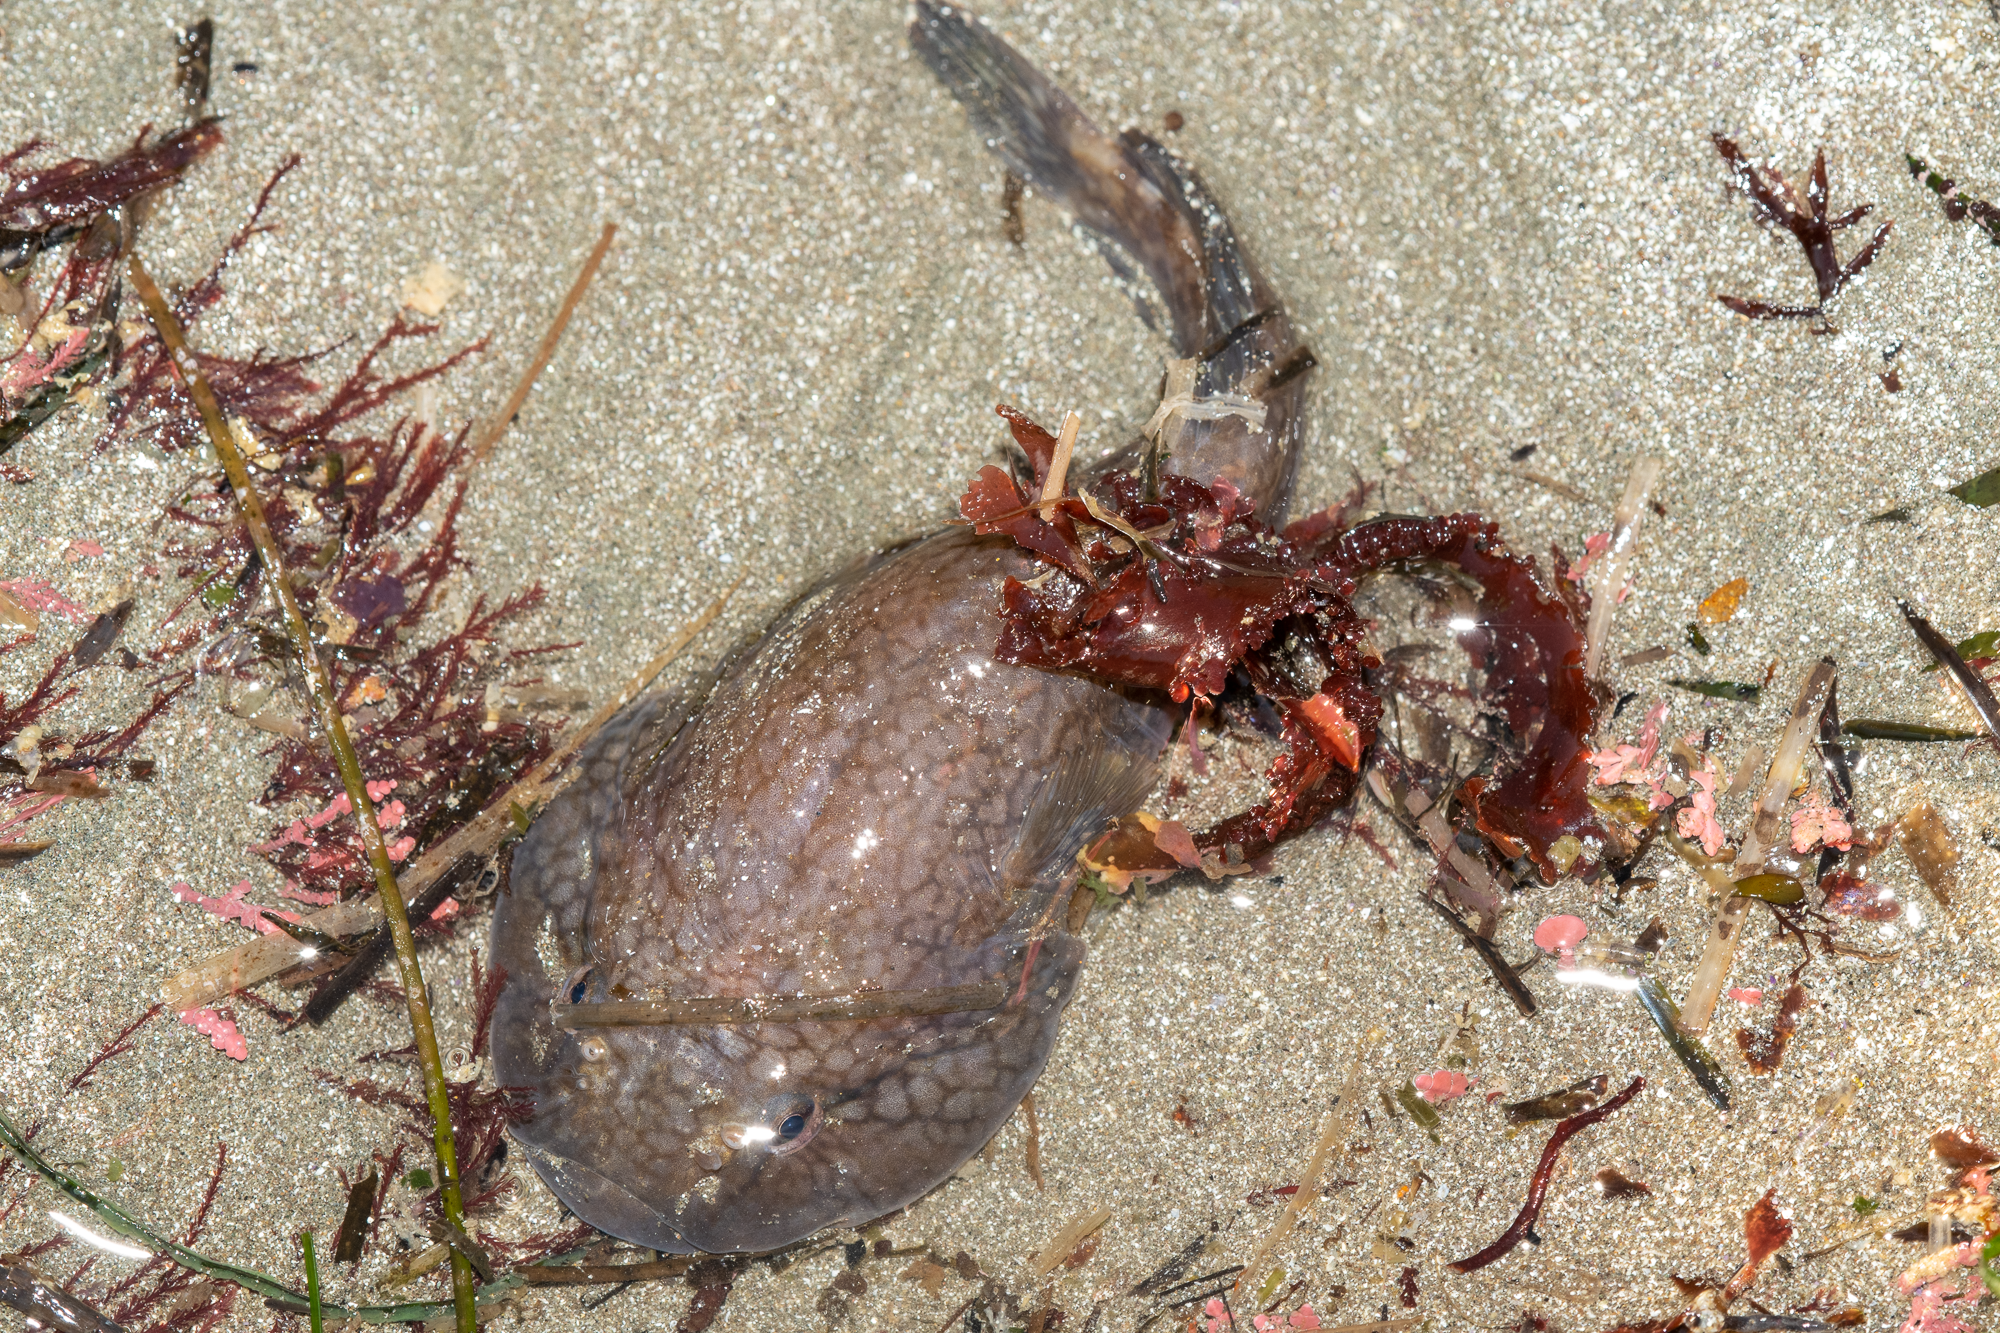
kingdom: Animalia
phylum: Chordata
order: Gobiesociformes
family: Gobiesocidae
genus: Gobiesox
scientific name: Gobiesox maeandricus
